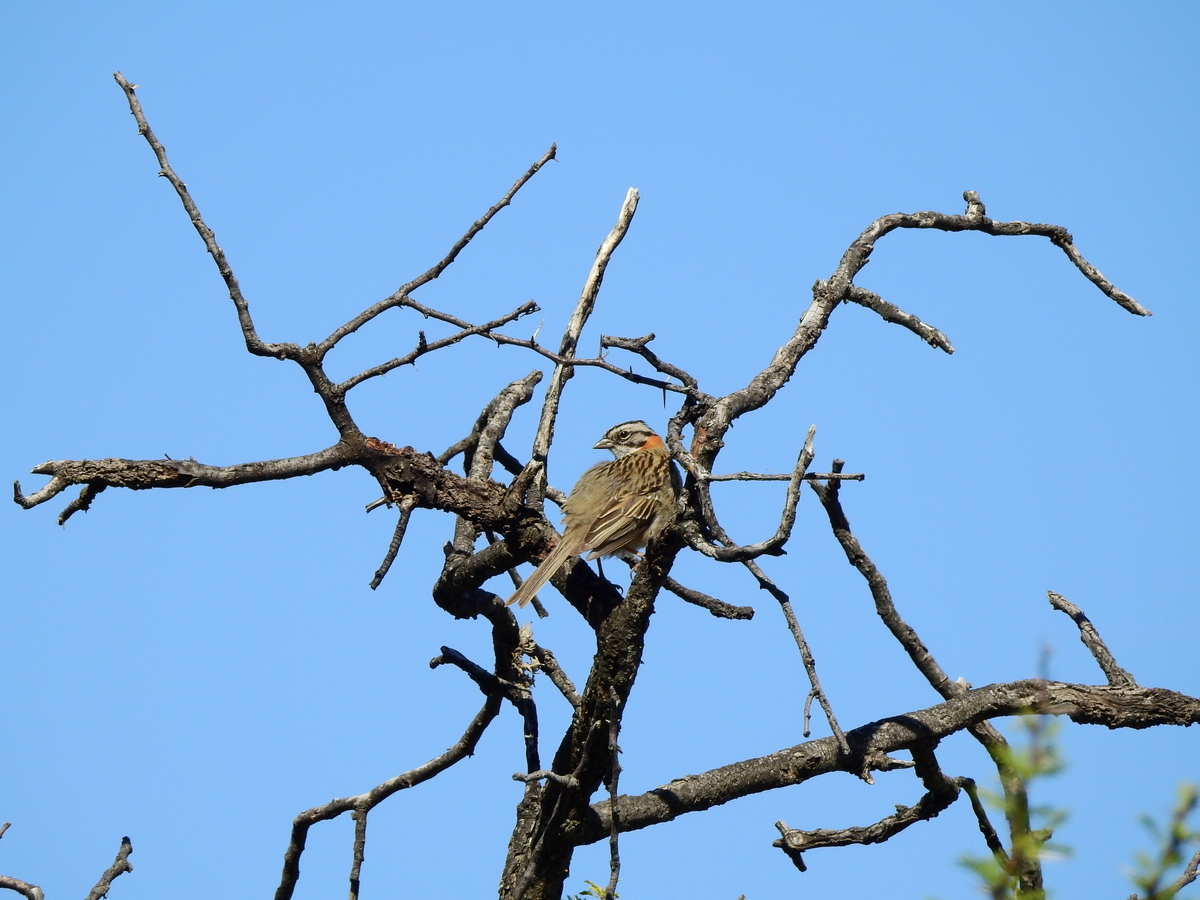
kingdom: Animalia
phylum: Chordata
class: Aves
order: Passeriformes
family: Passerellidae
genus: Zonotrichia
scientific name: Zonotrichia capensis
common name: Rufous-collared sparrow
